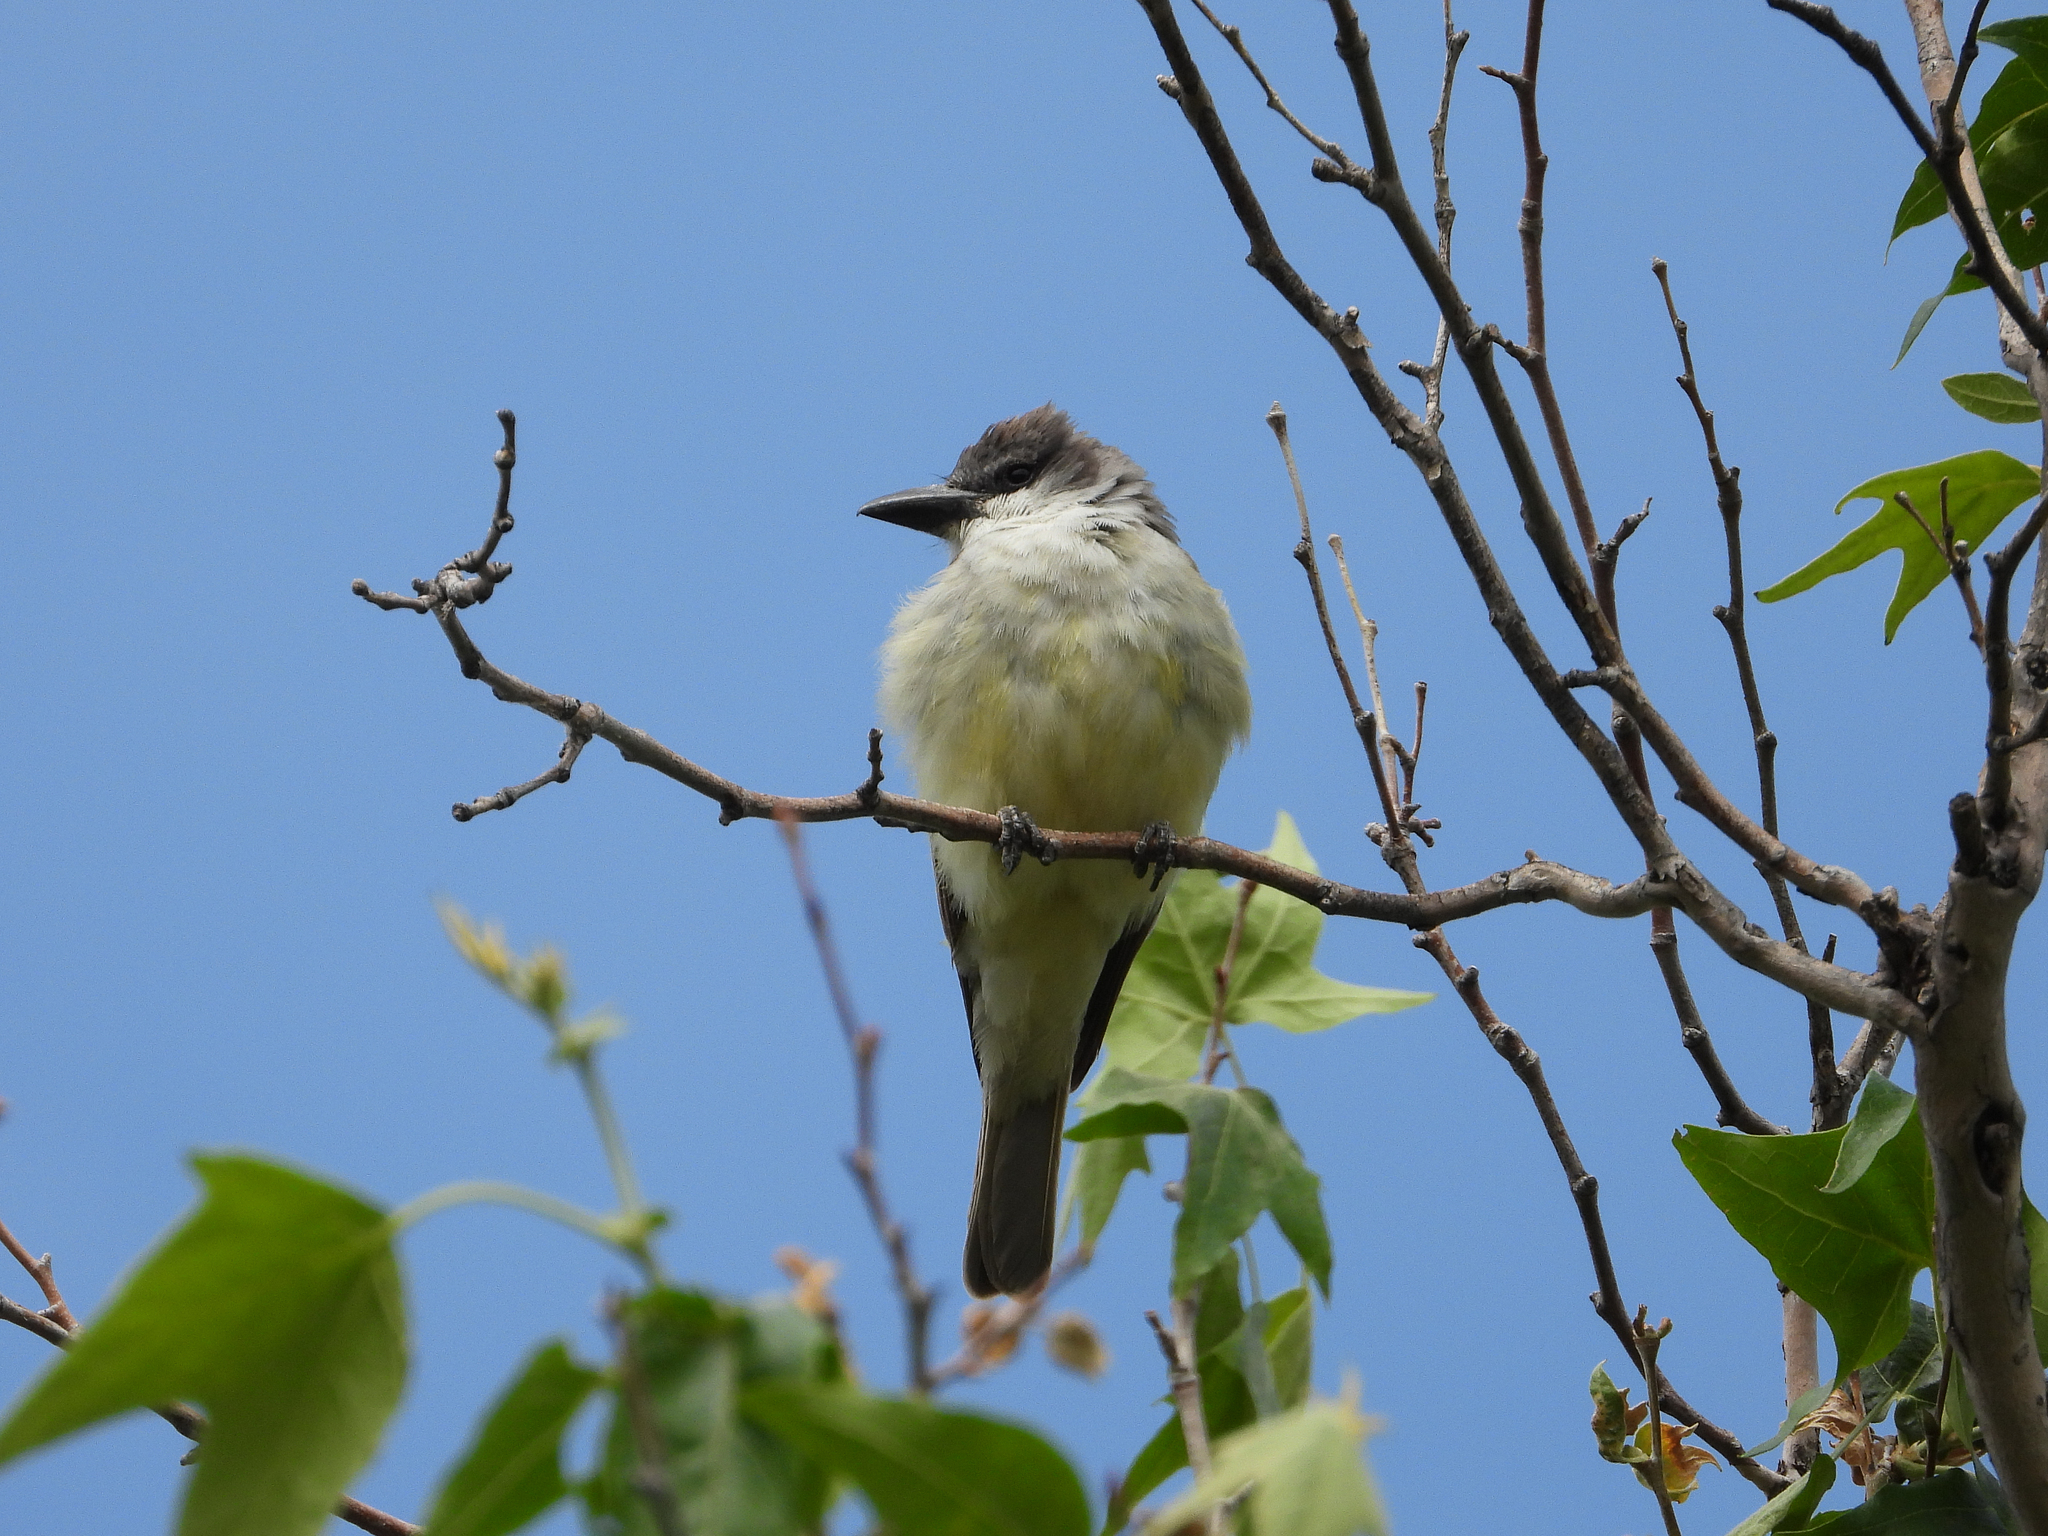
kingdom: Animalia
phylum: Chordata
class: Aves
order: Passeriformes
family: Tyrannidae
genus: Tyrannus
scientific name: Tyrannus crassirostris
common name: Thick-billed kingbird
